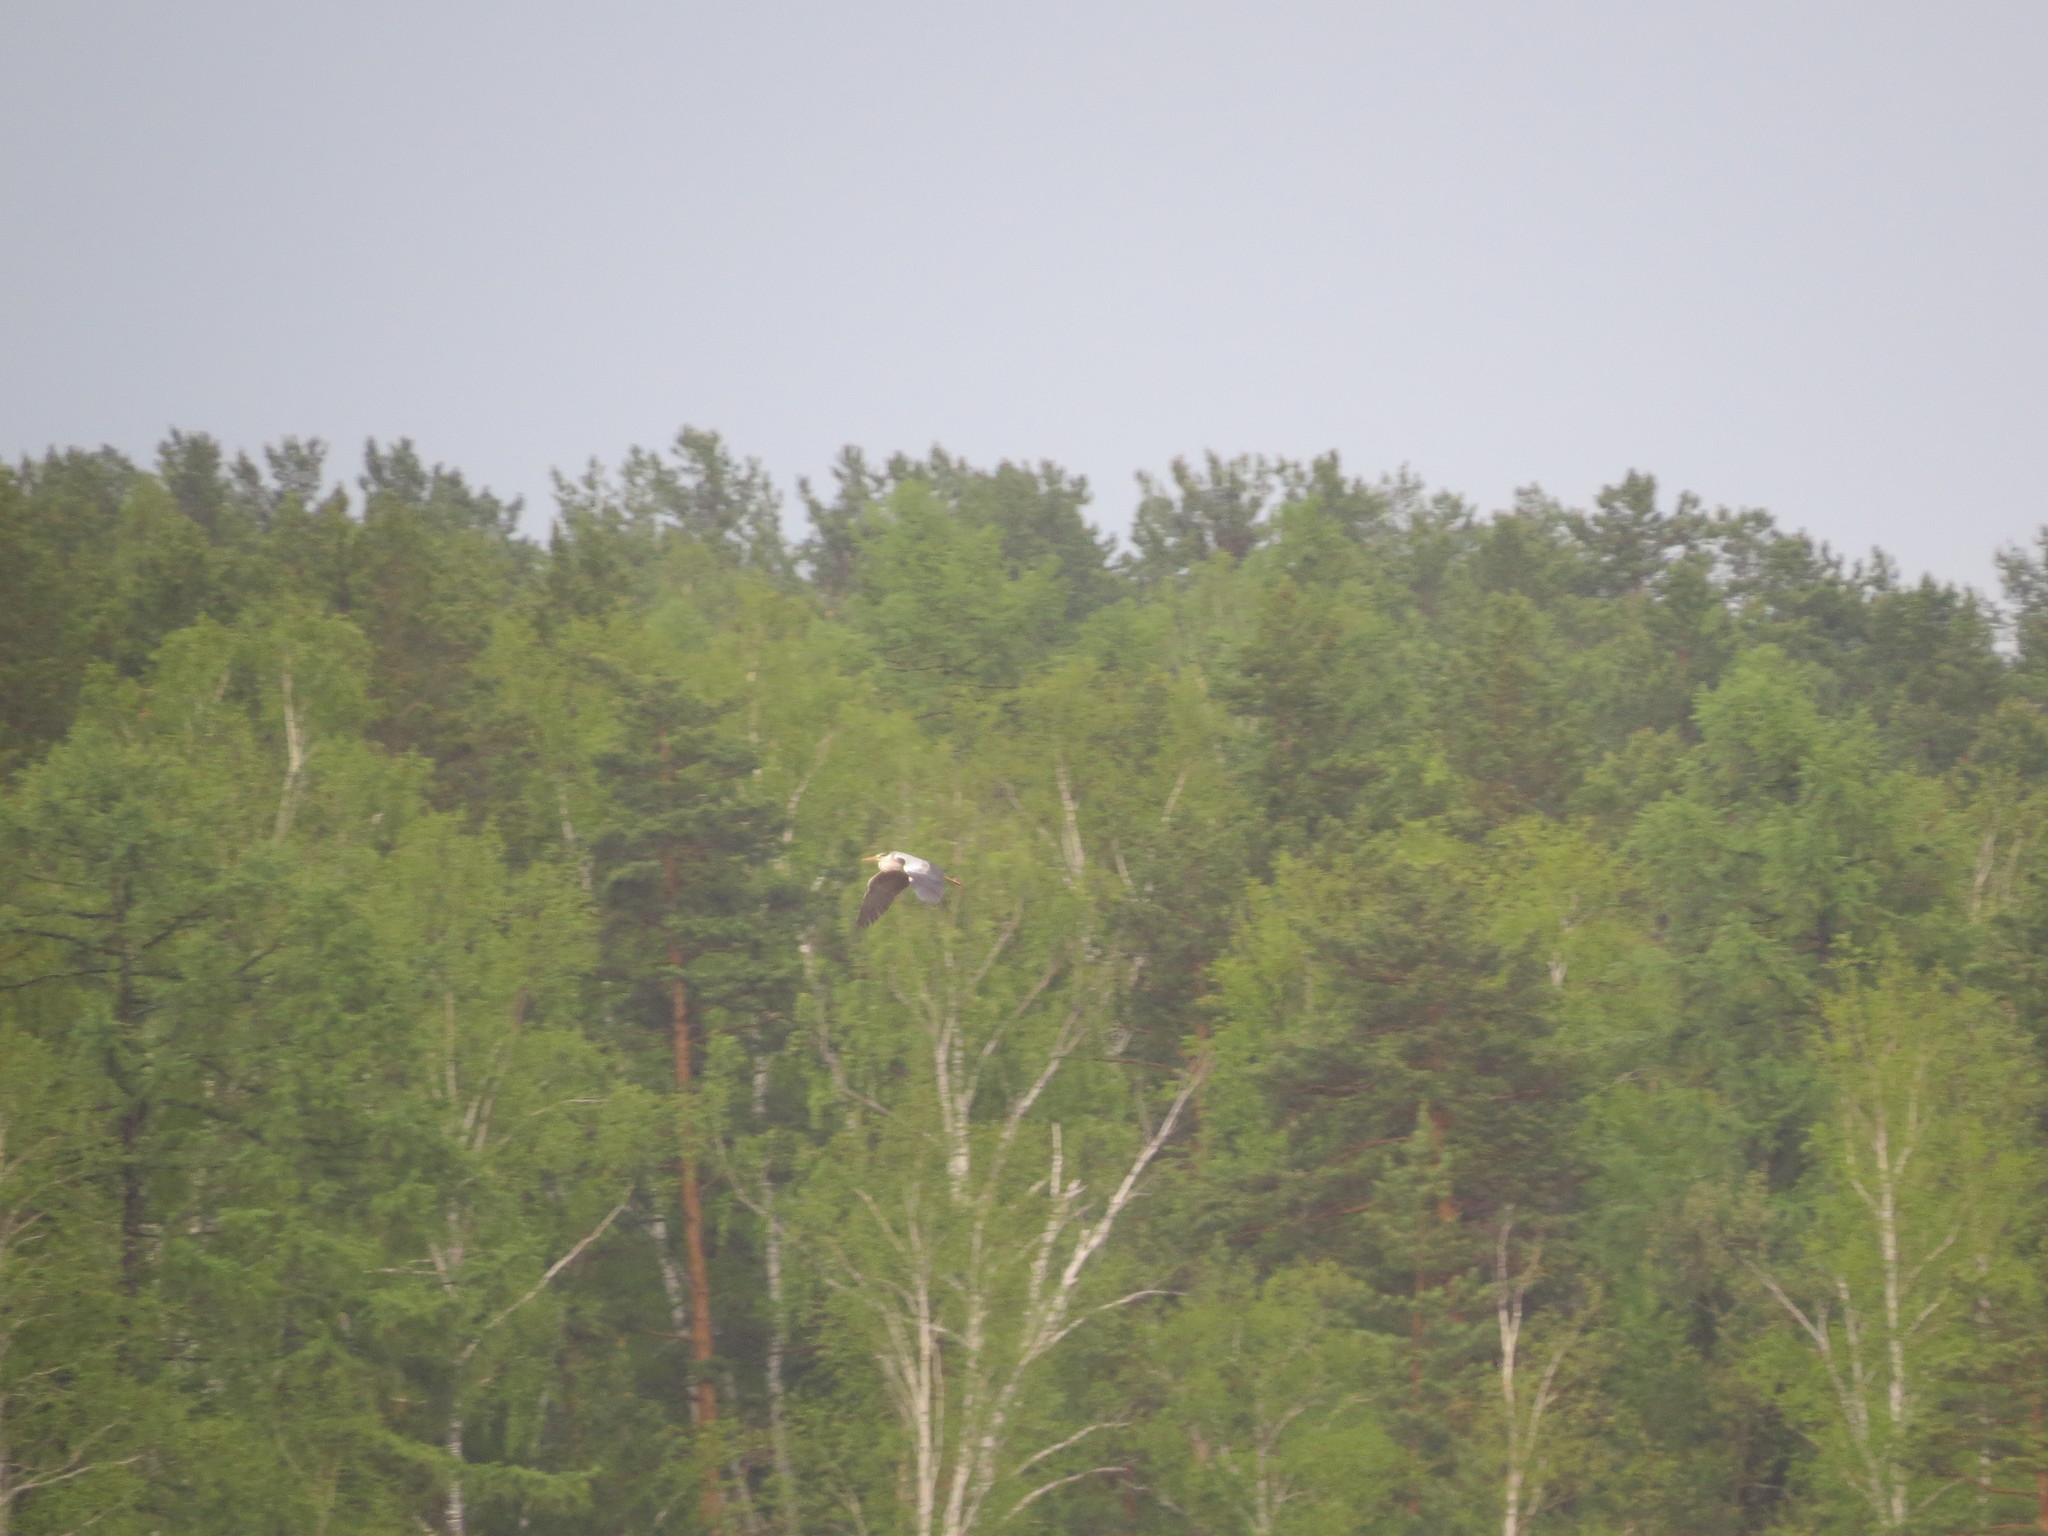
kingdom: Animalia
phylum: Chordata
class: Aves
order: Pelecaniformes
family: Ardeidae
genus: Ardea
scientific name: Ardea cinerea
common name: Grey heron
